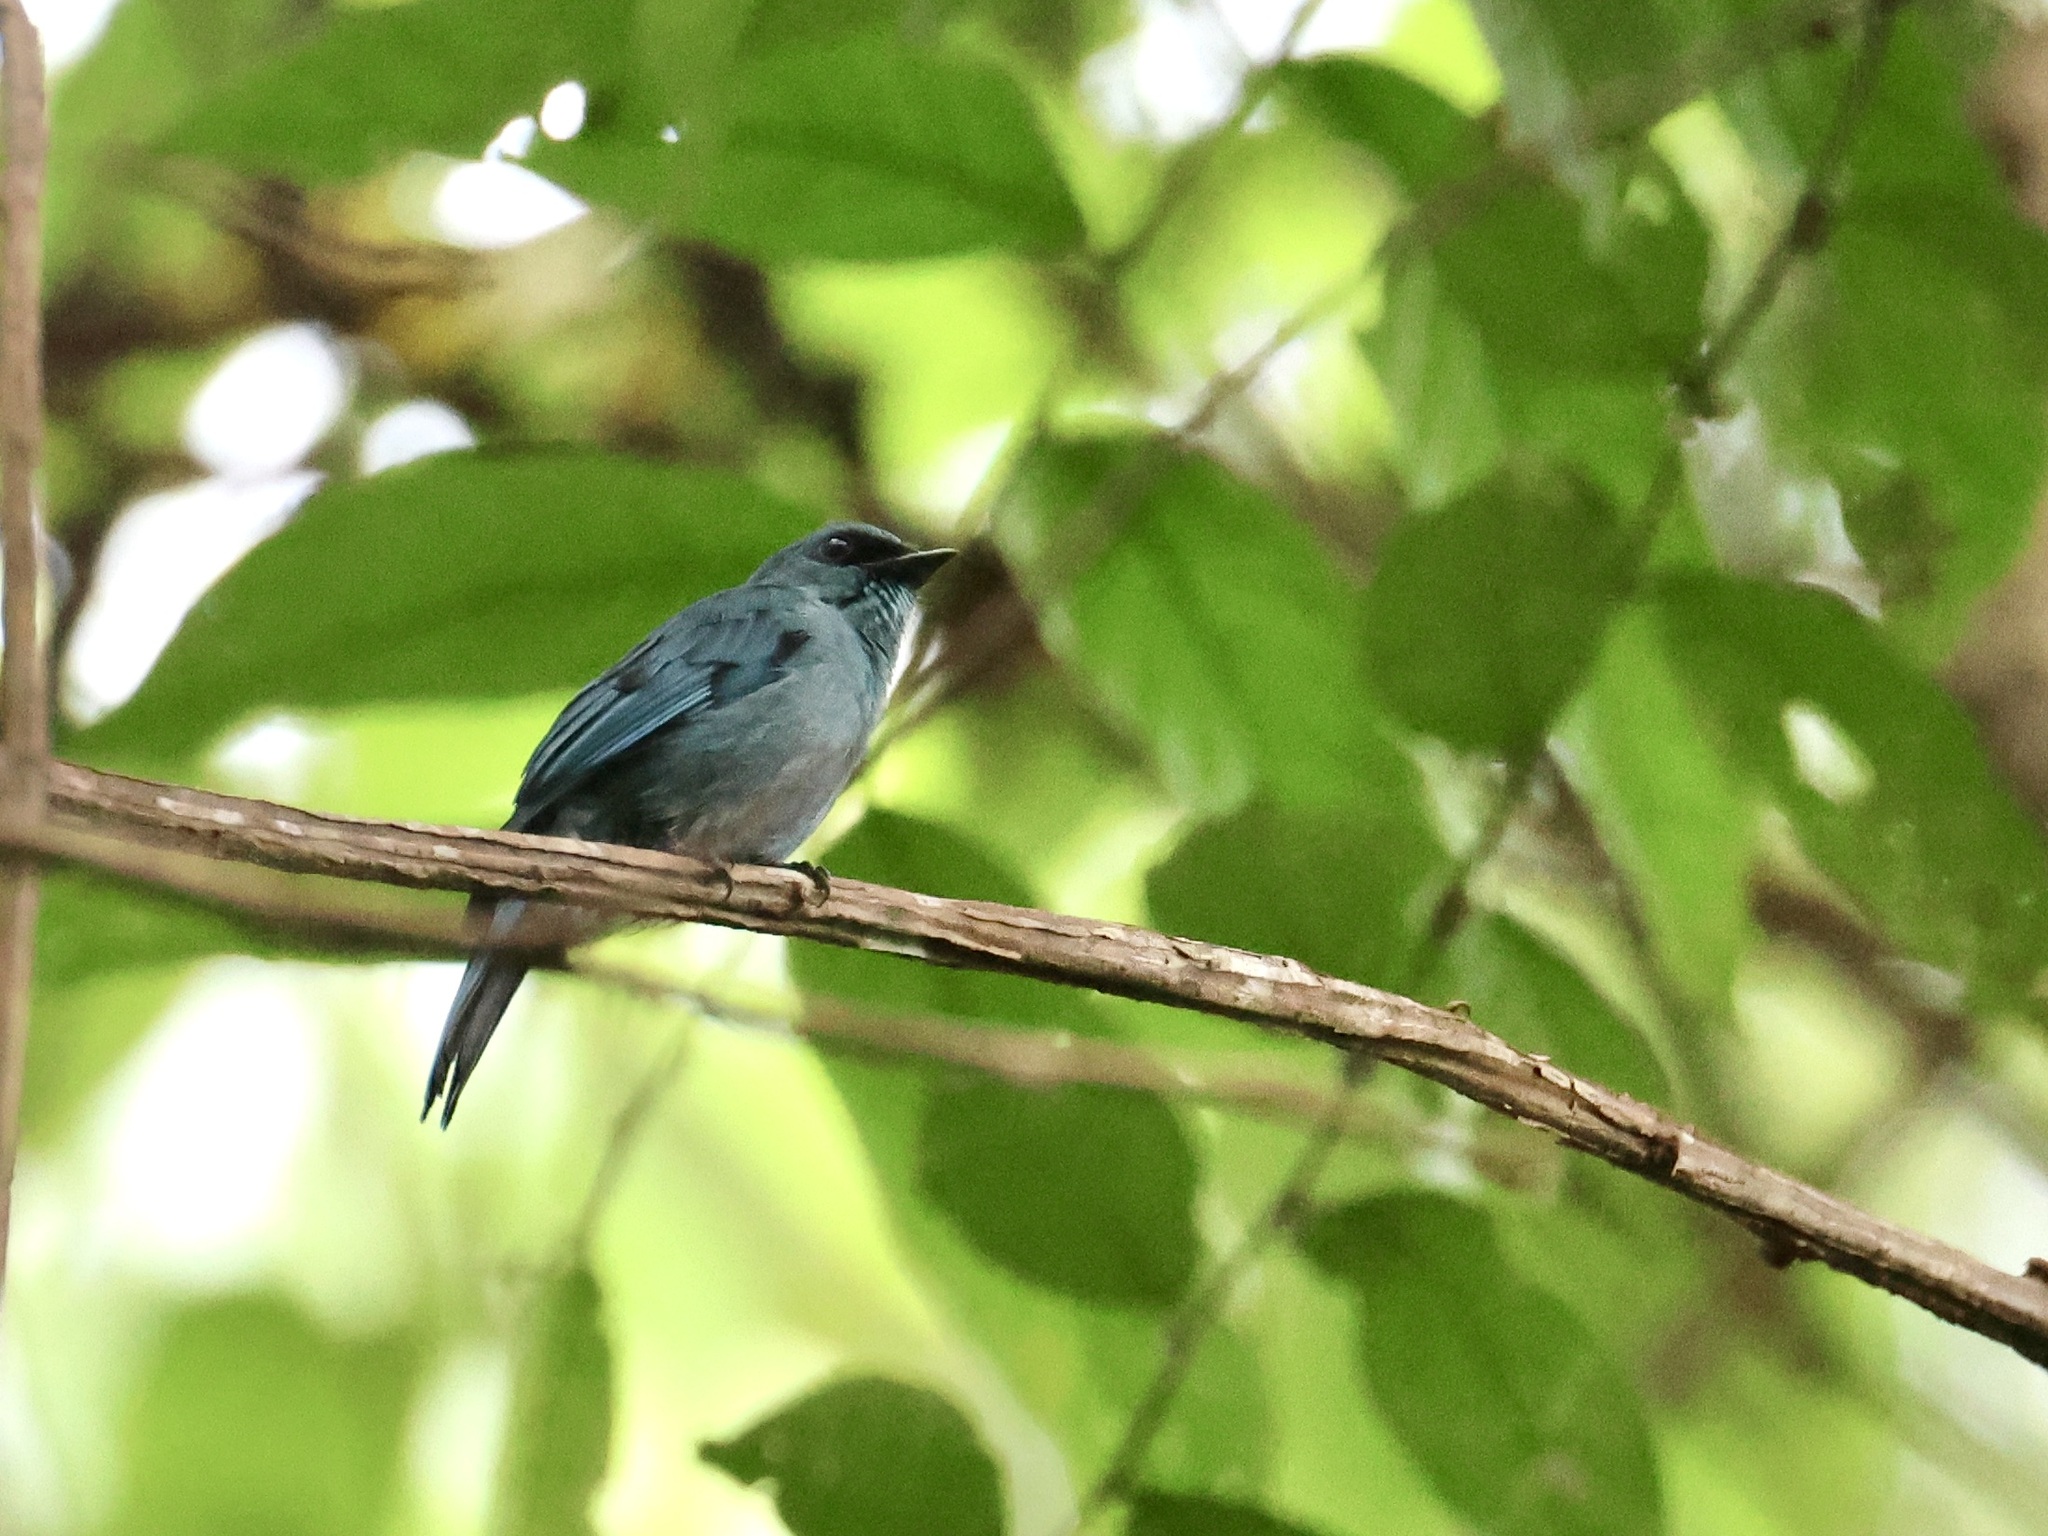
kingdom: Animalia
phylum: Chordata
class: Aves
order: Passeriformes
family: Muscicapidae
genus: Eumyias
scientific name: Eumyias thalassinus
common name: Verditer flycatcher
